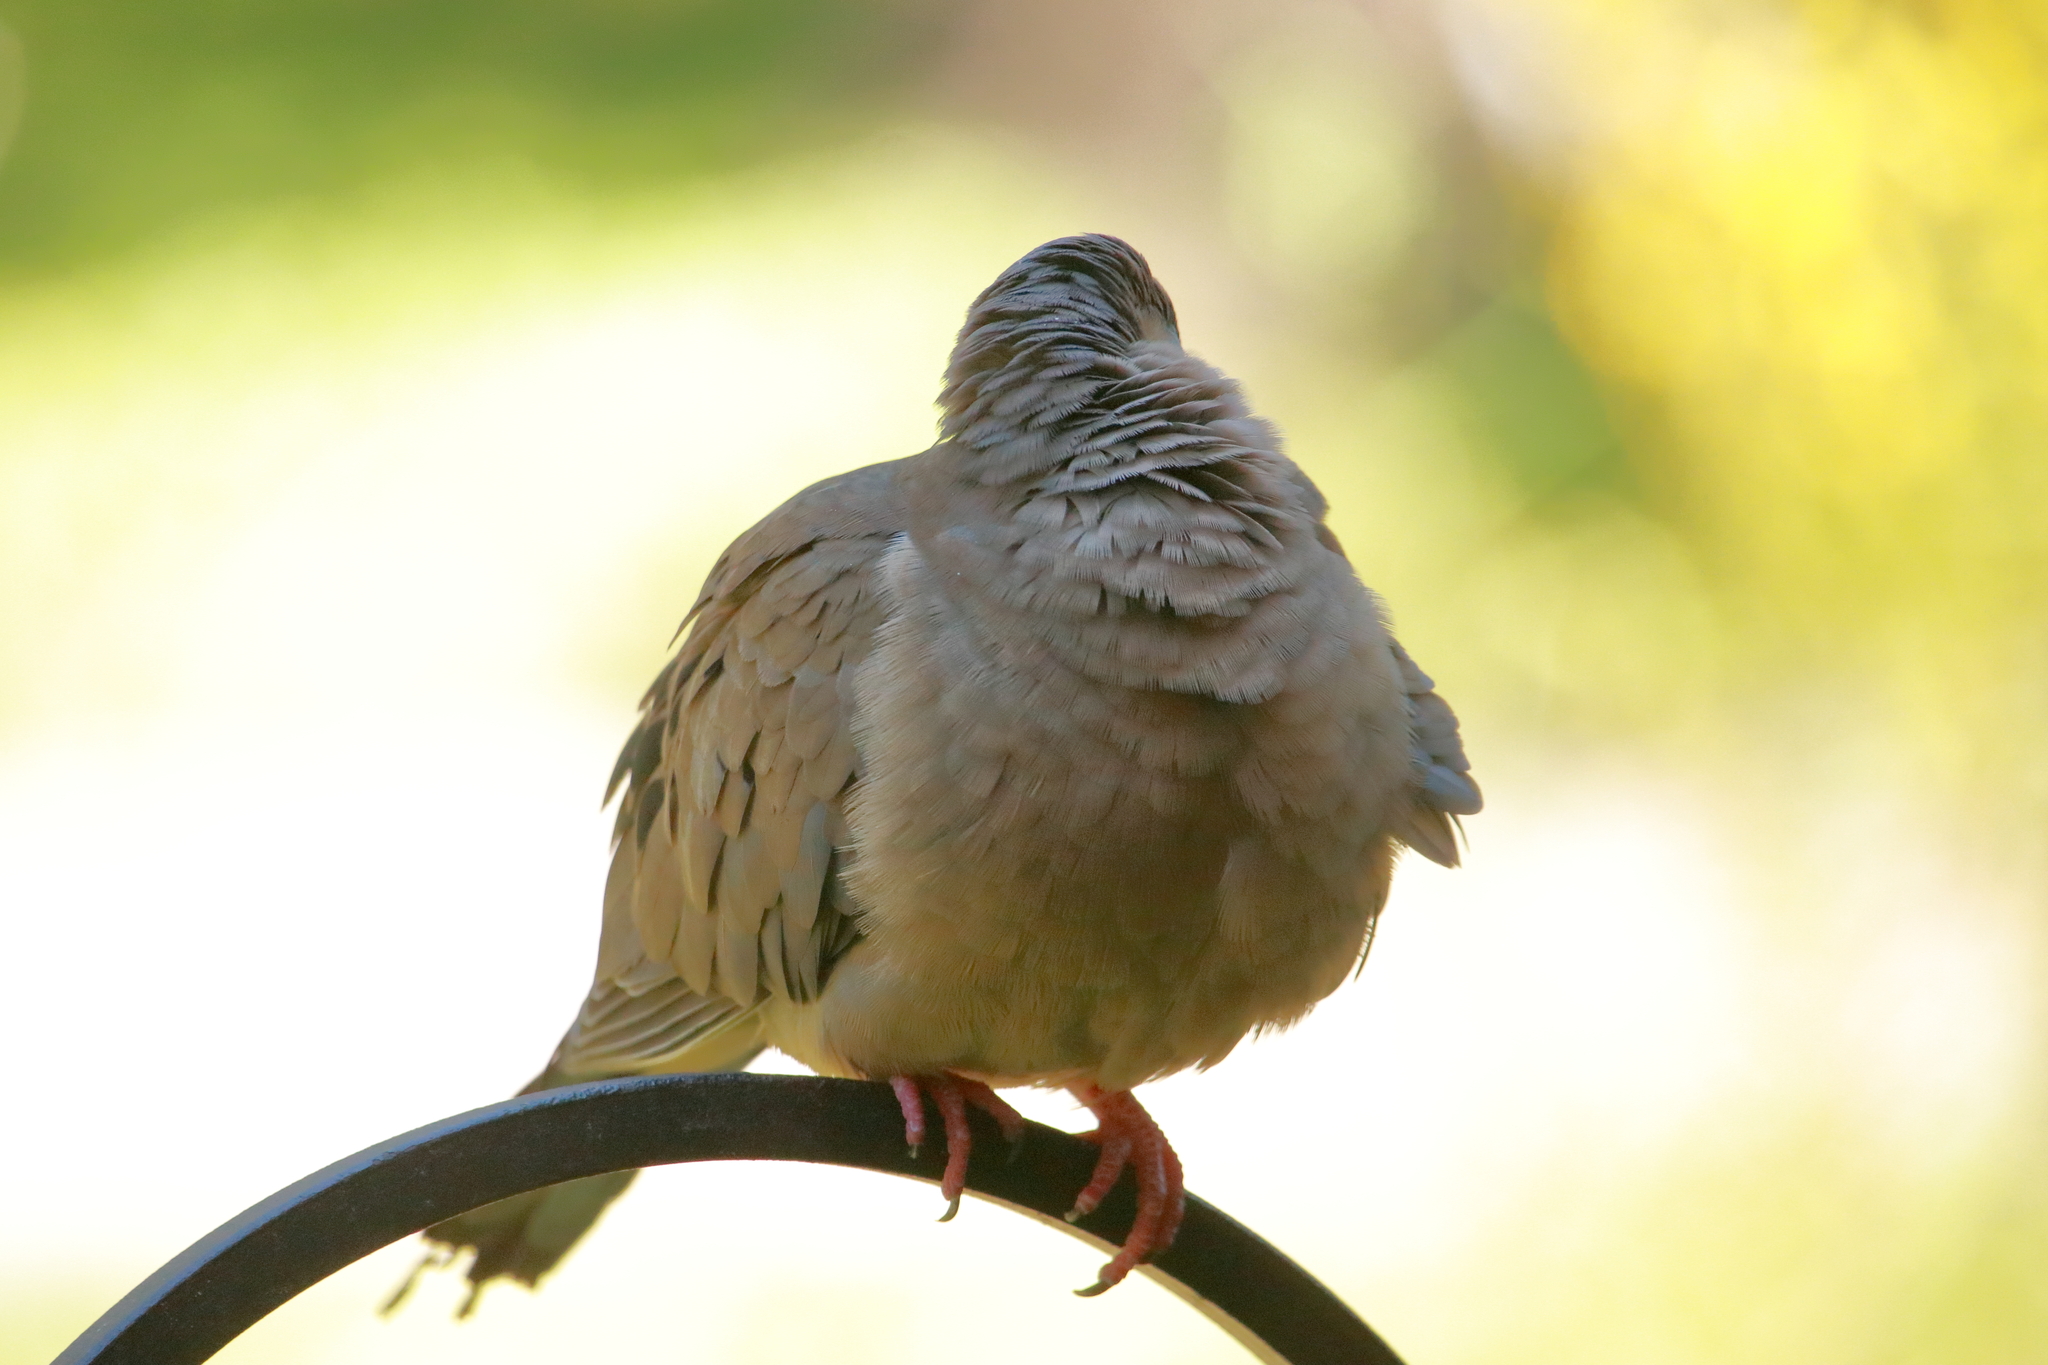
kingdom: Animalia
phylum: Chordata
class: Aves
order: Columbiformes
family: Columbidae
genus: Zenaida
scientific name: Zenaida macroura
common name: Mourning dove
